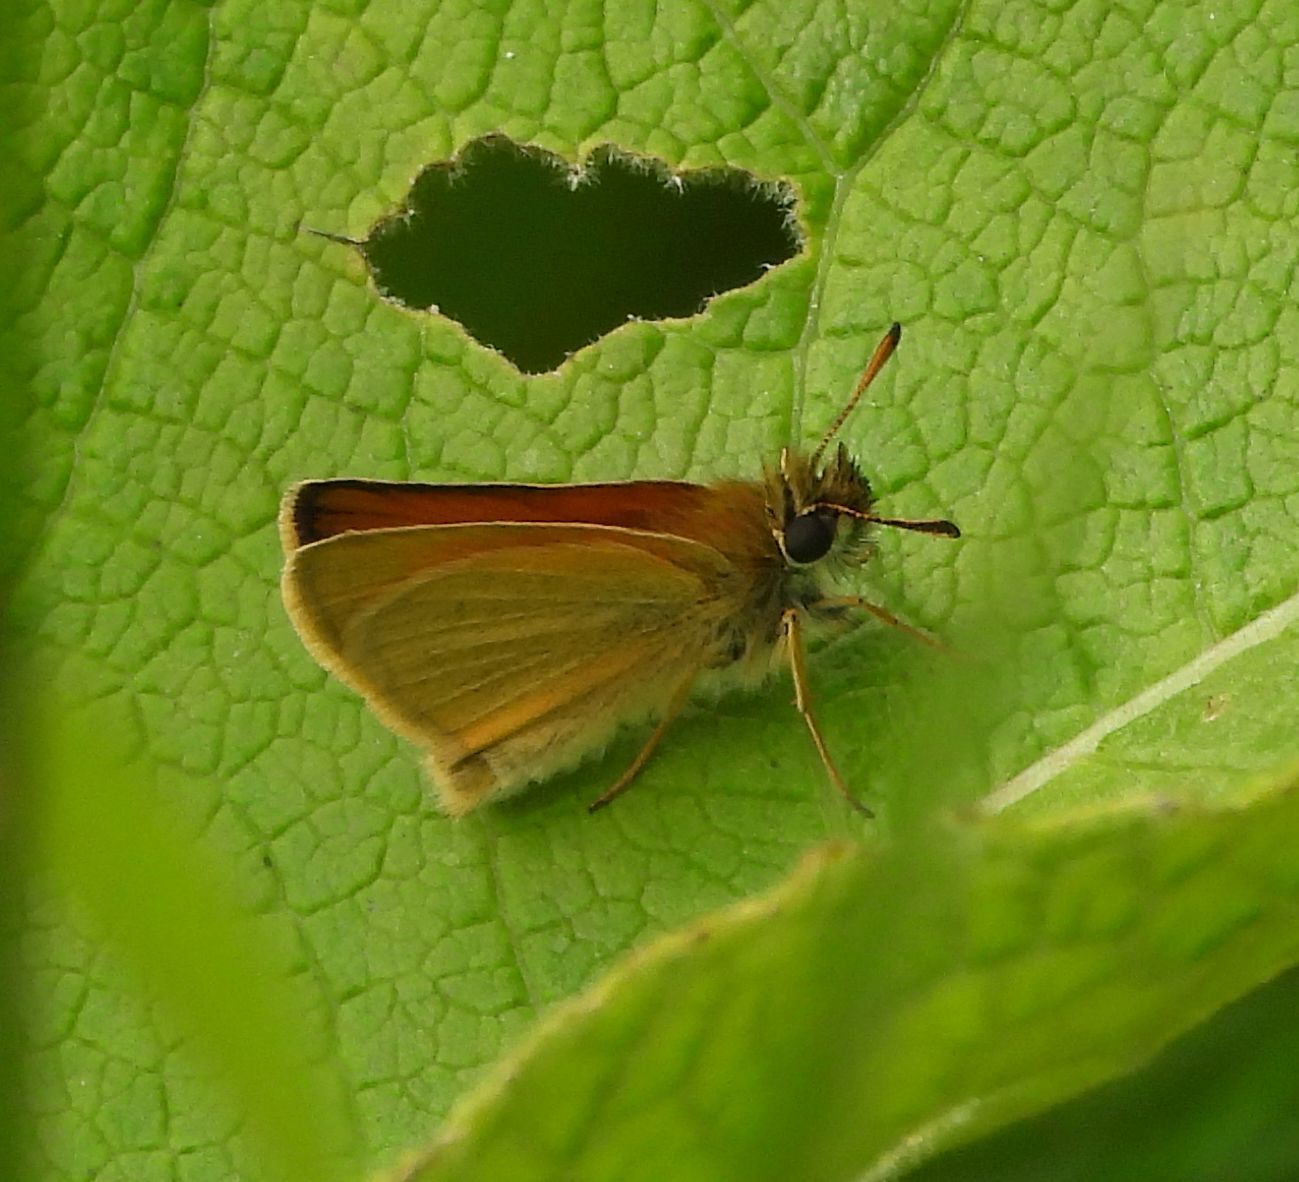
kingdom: Animalia
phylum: Arthropoda
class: Insecta
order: Lepidoptera
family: Hesperiidae
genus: Thymelicus
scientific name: Thymelicus lineola
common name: Essex skipper
